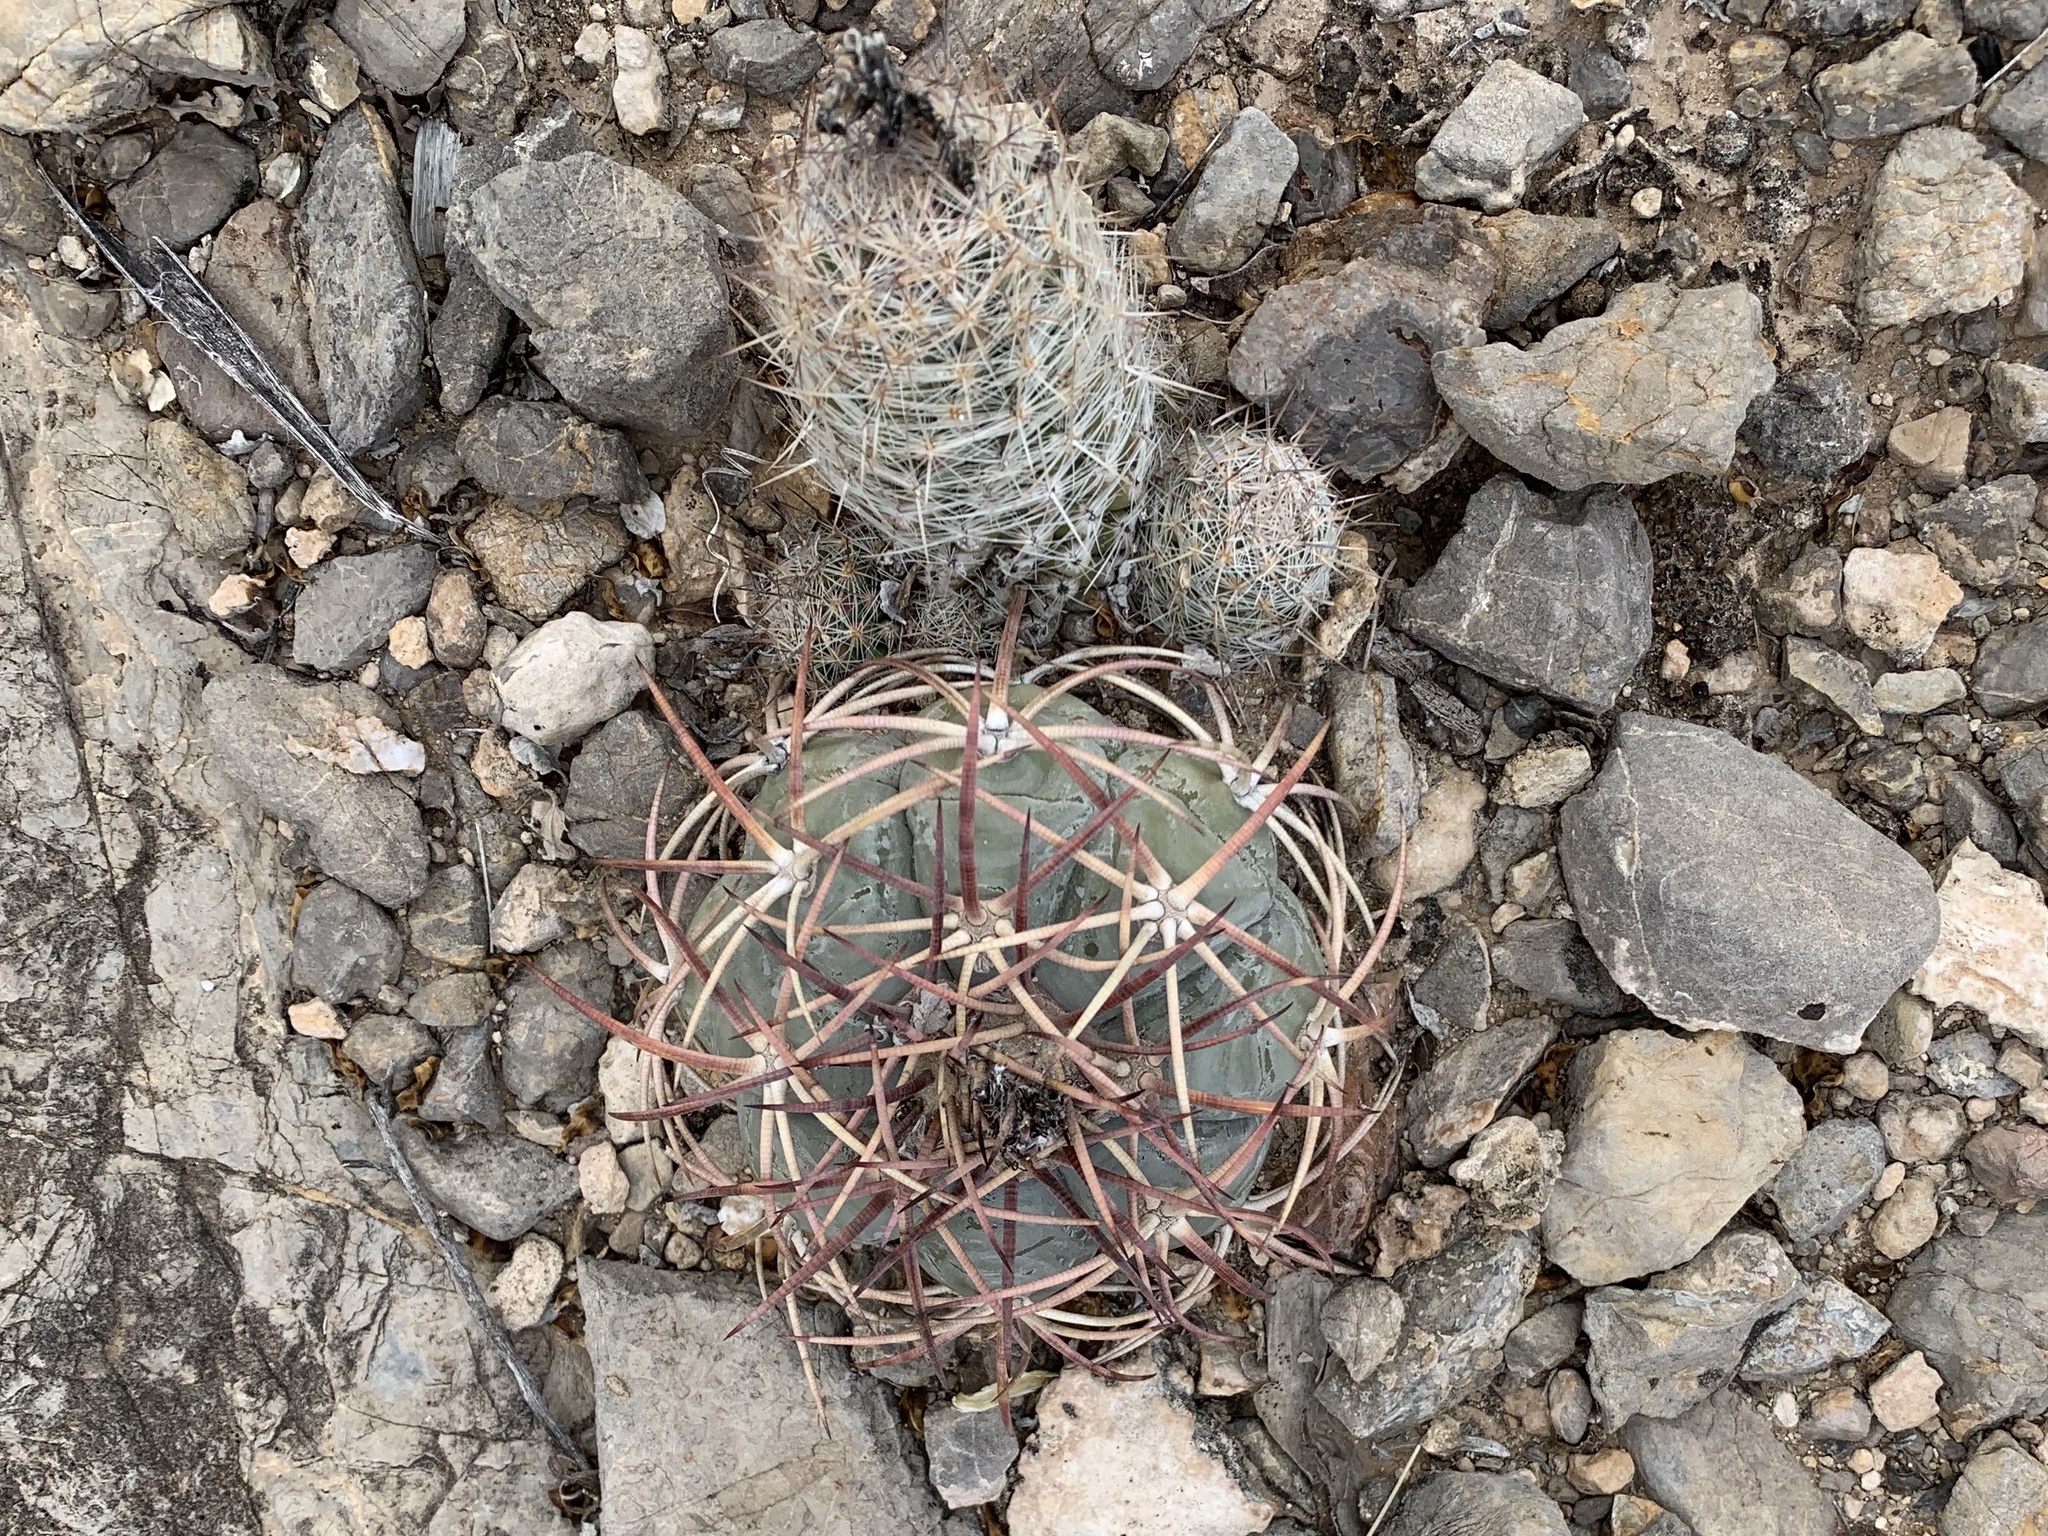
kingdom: Plantae
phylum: Tracheophyta
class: Magnoliopsida
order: Caryophyllales
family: Cactaceae
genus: Pelecyphora
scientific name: Pelecyphora tuberculosa
